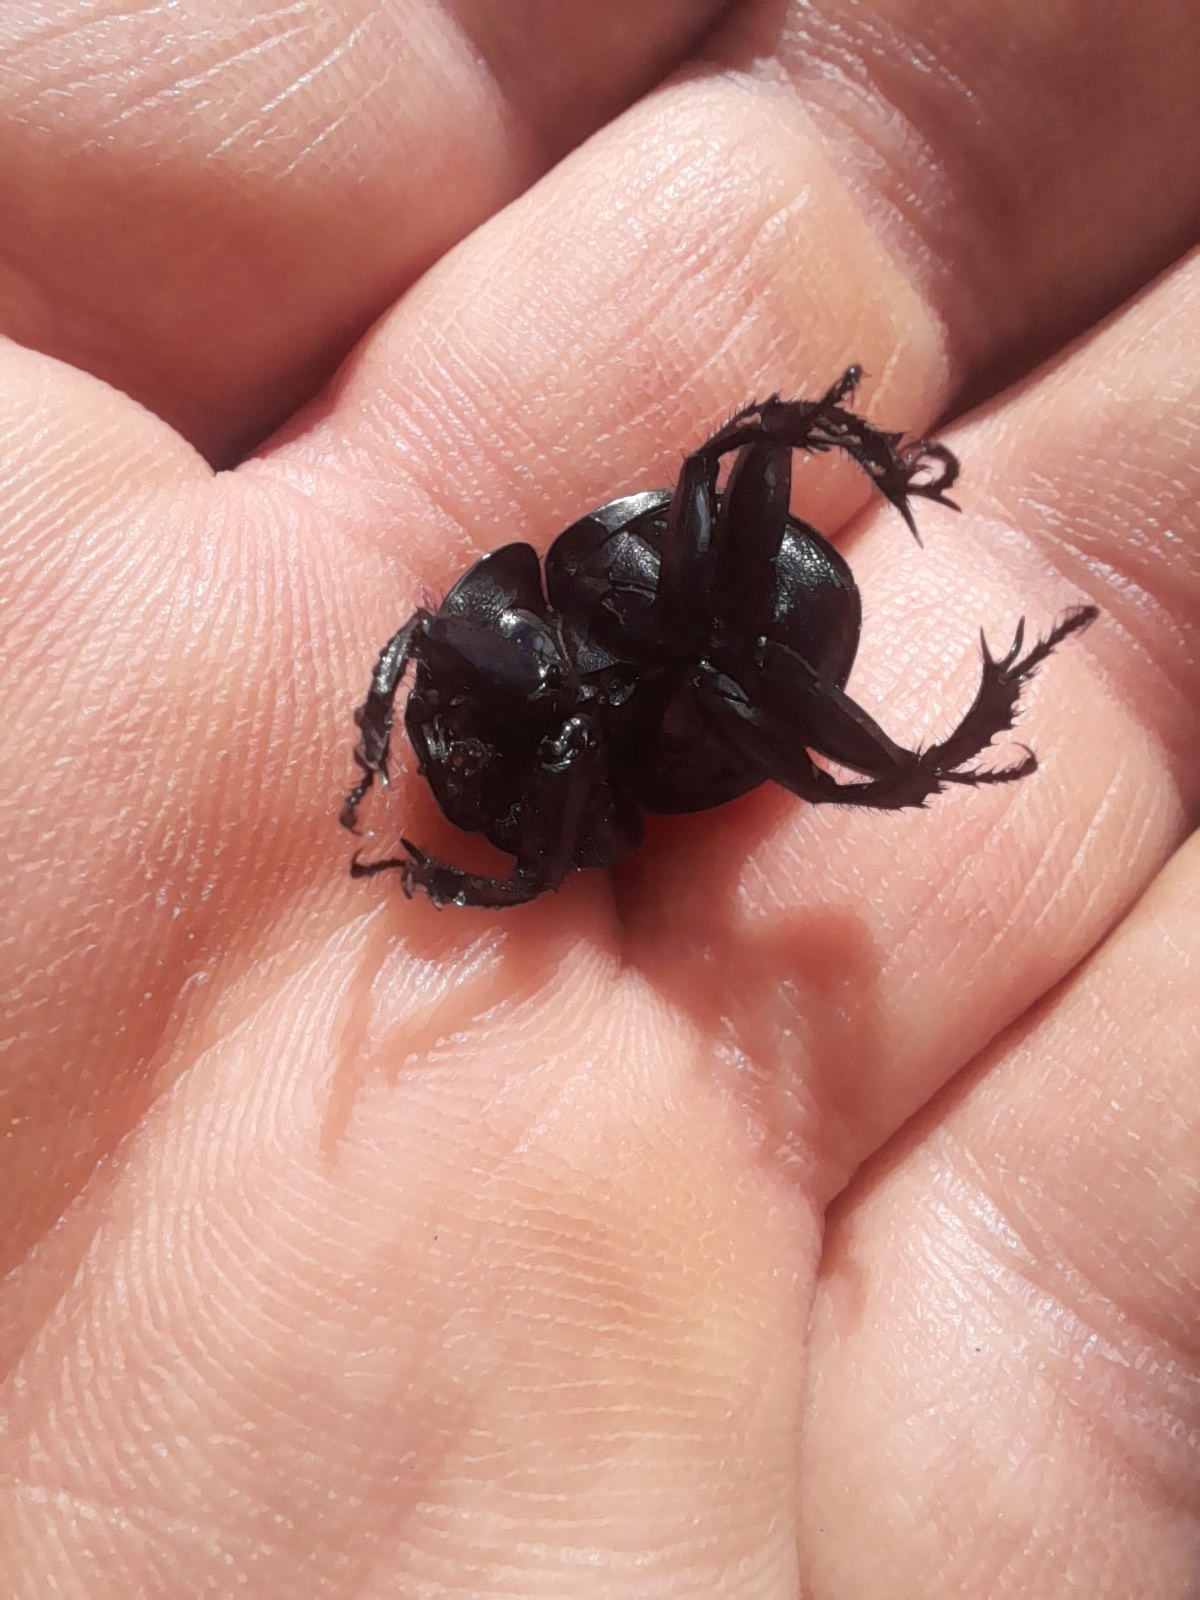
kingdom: Animalia
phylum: Arthropoda
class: Insecta
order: Coleoptera
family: Geotrupidae
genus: Jekelius
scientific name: Jekelius intermedius
